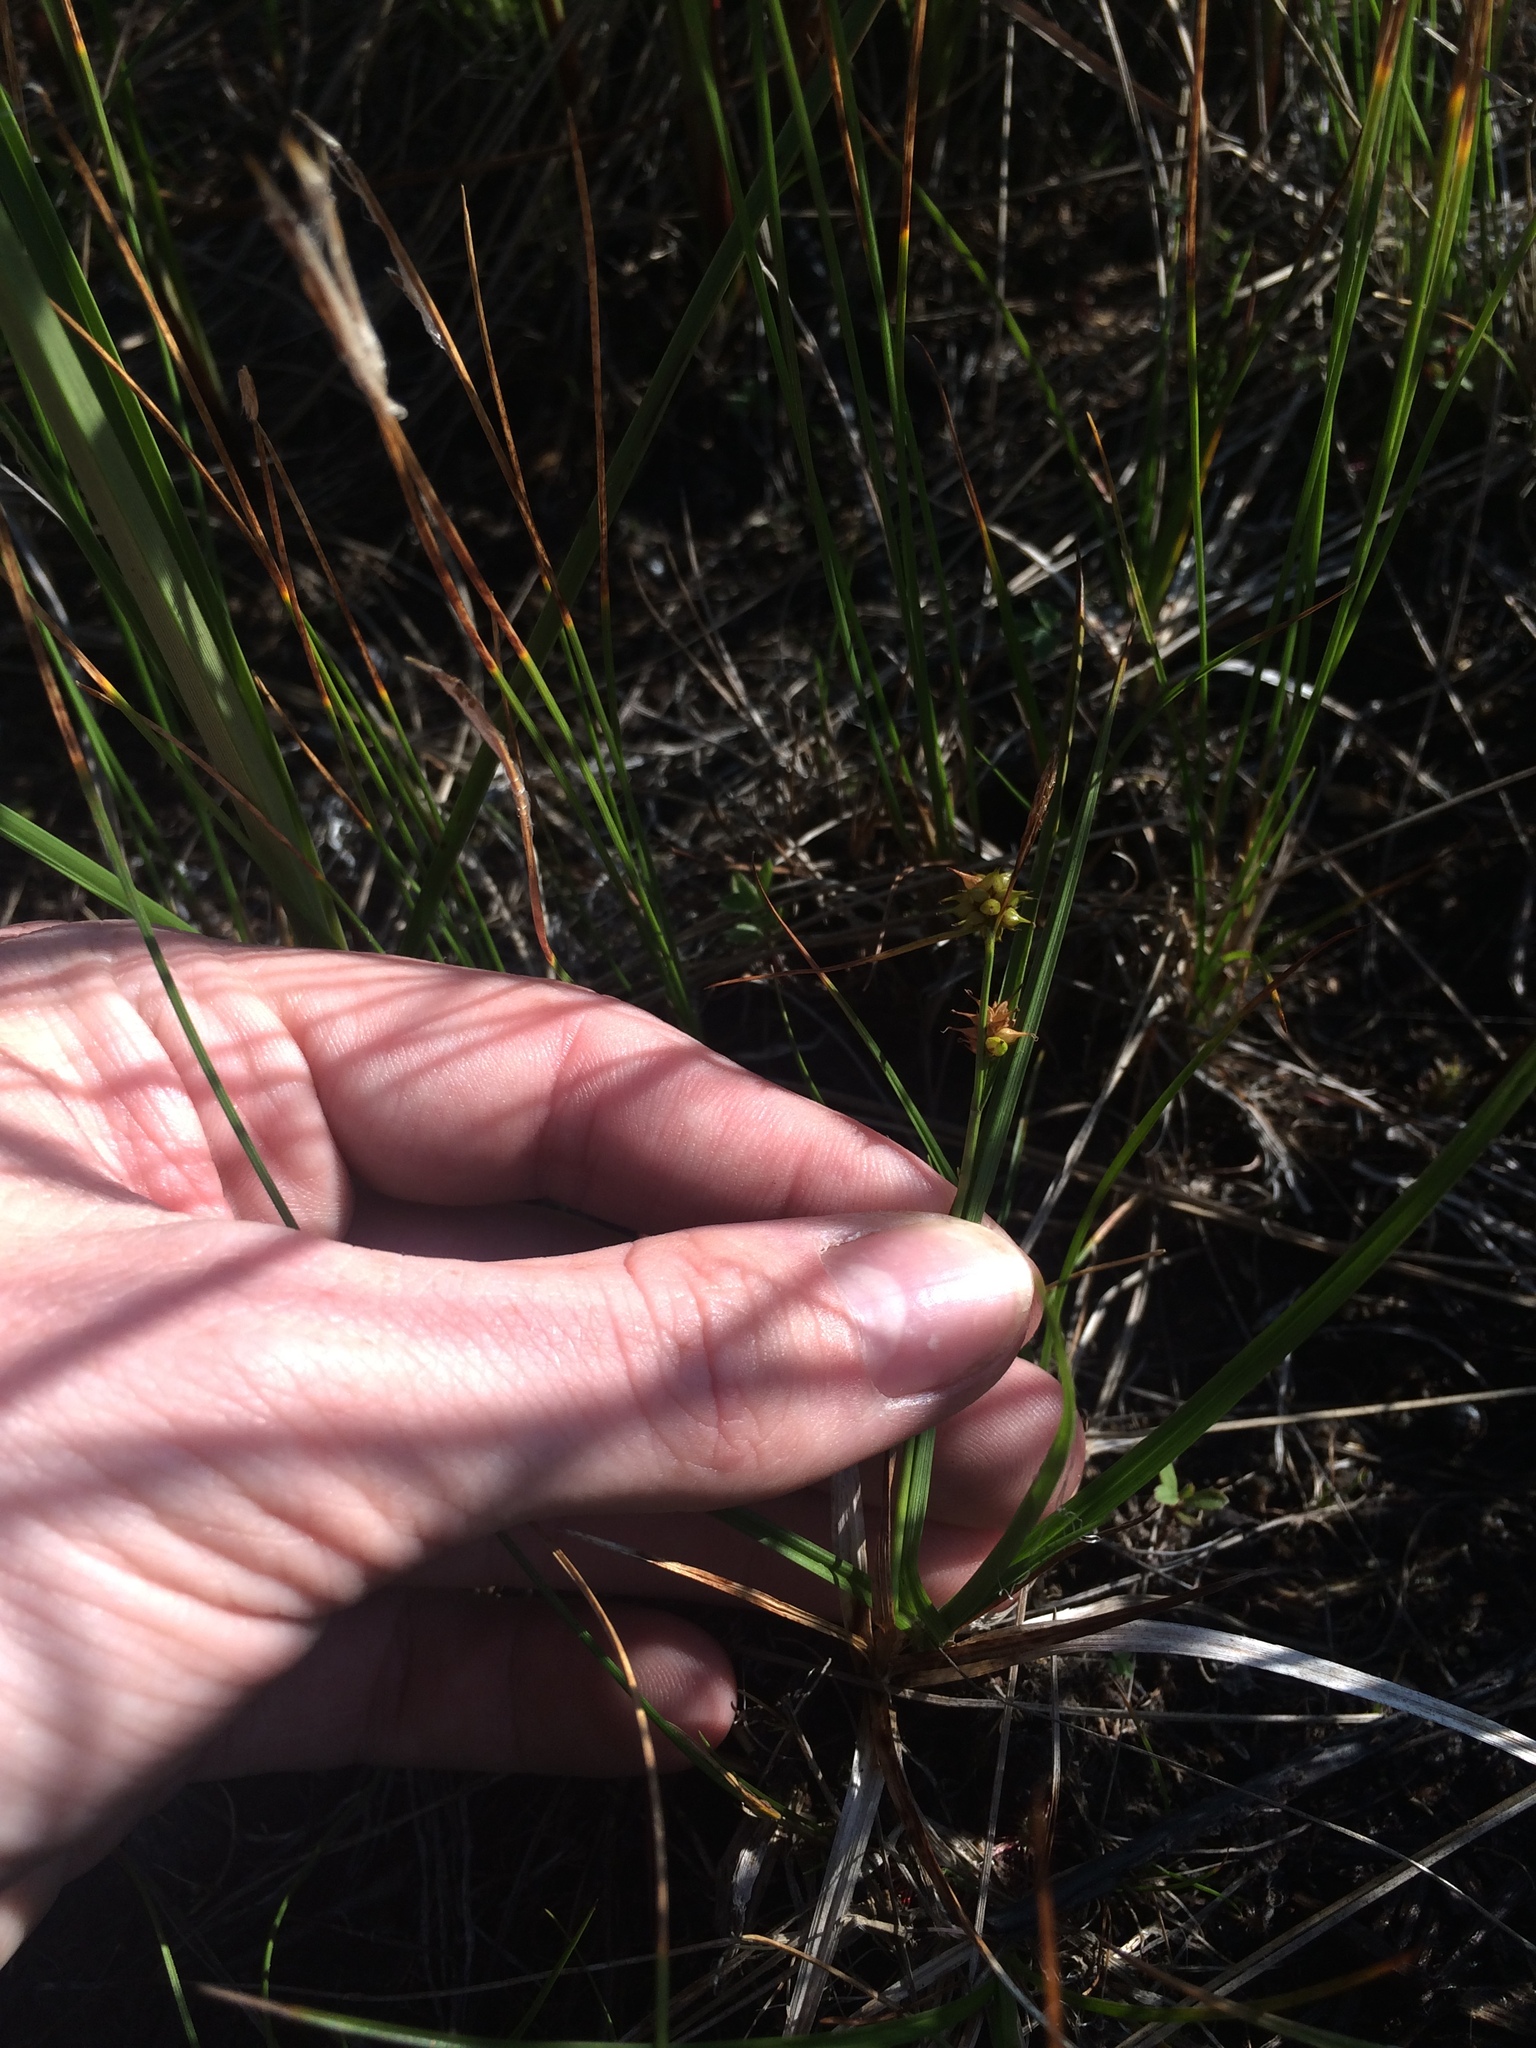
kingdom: Plantae
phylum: Tracheophyta
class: Liliopsida
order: Poales
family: Cyperaceae
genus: Carex
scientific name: Carex flava
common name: Large yellow-sedge
